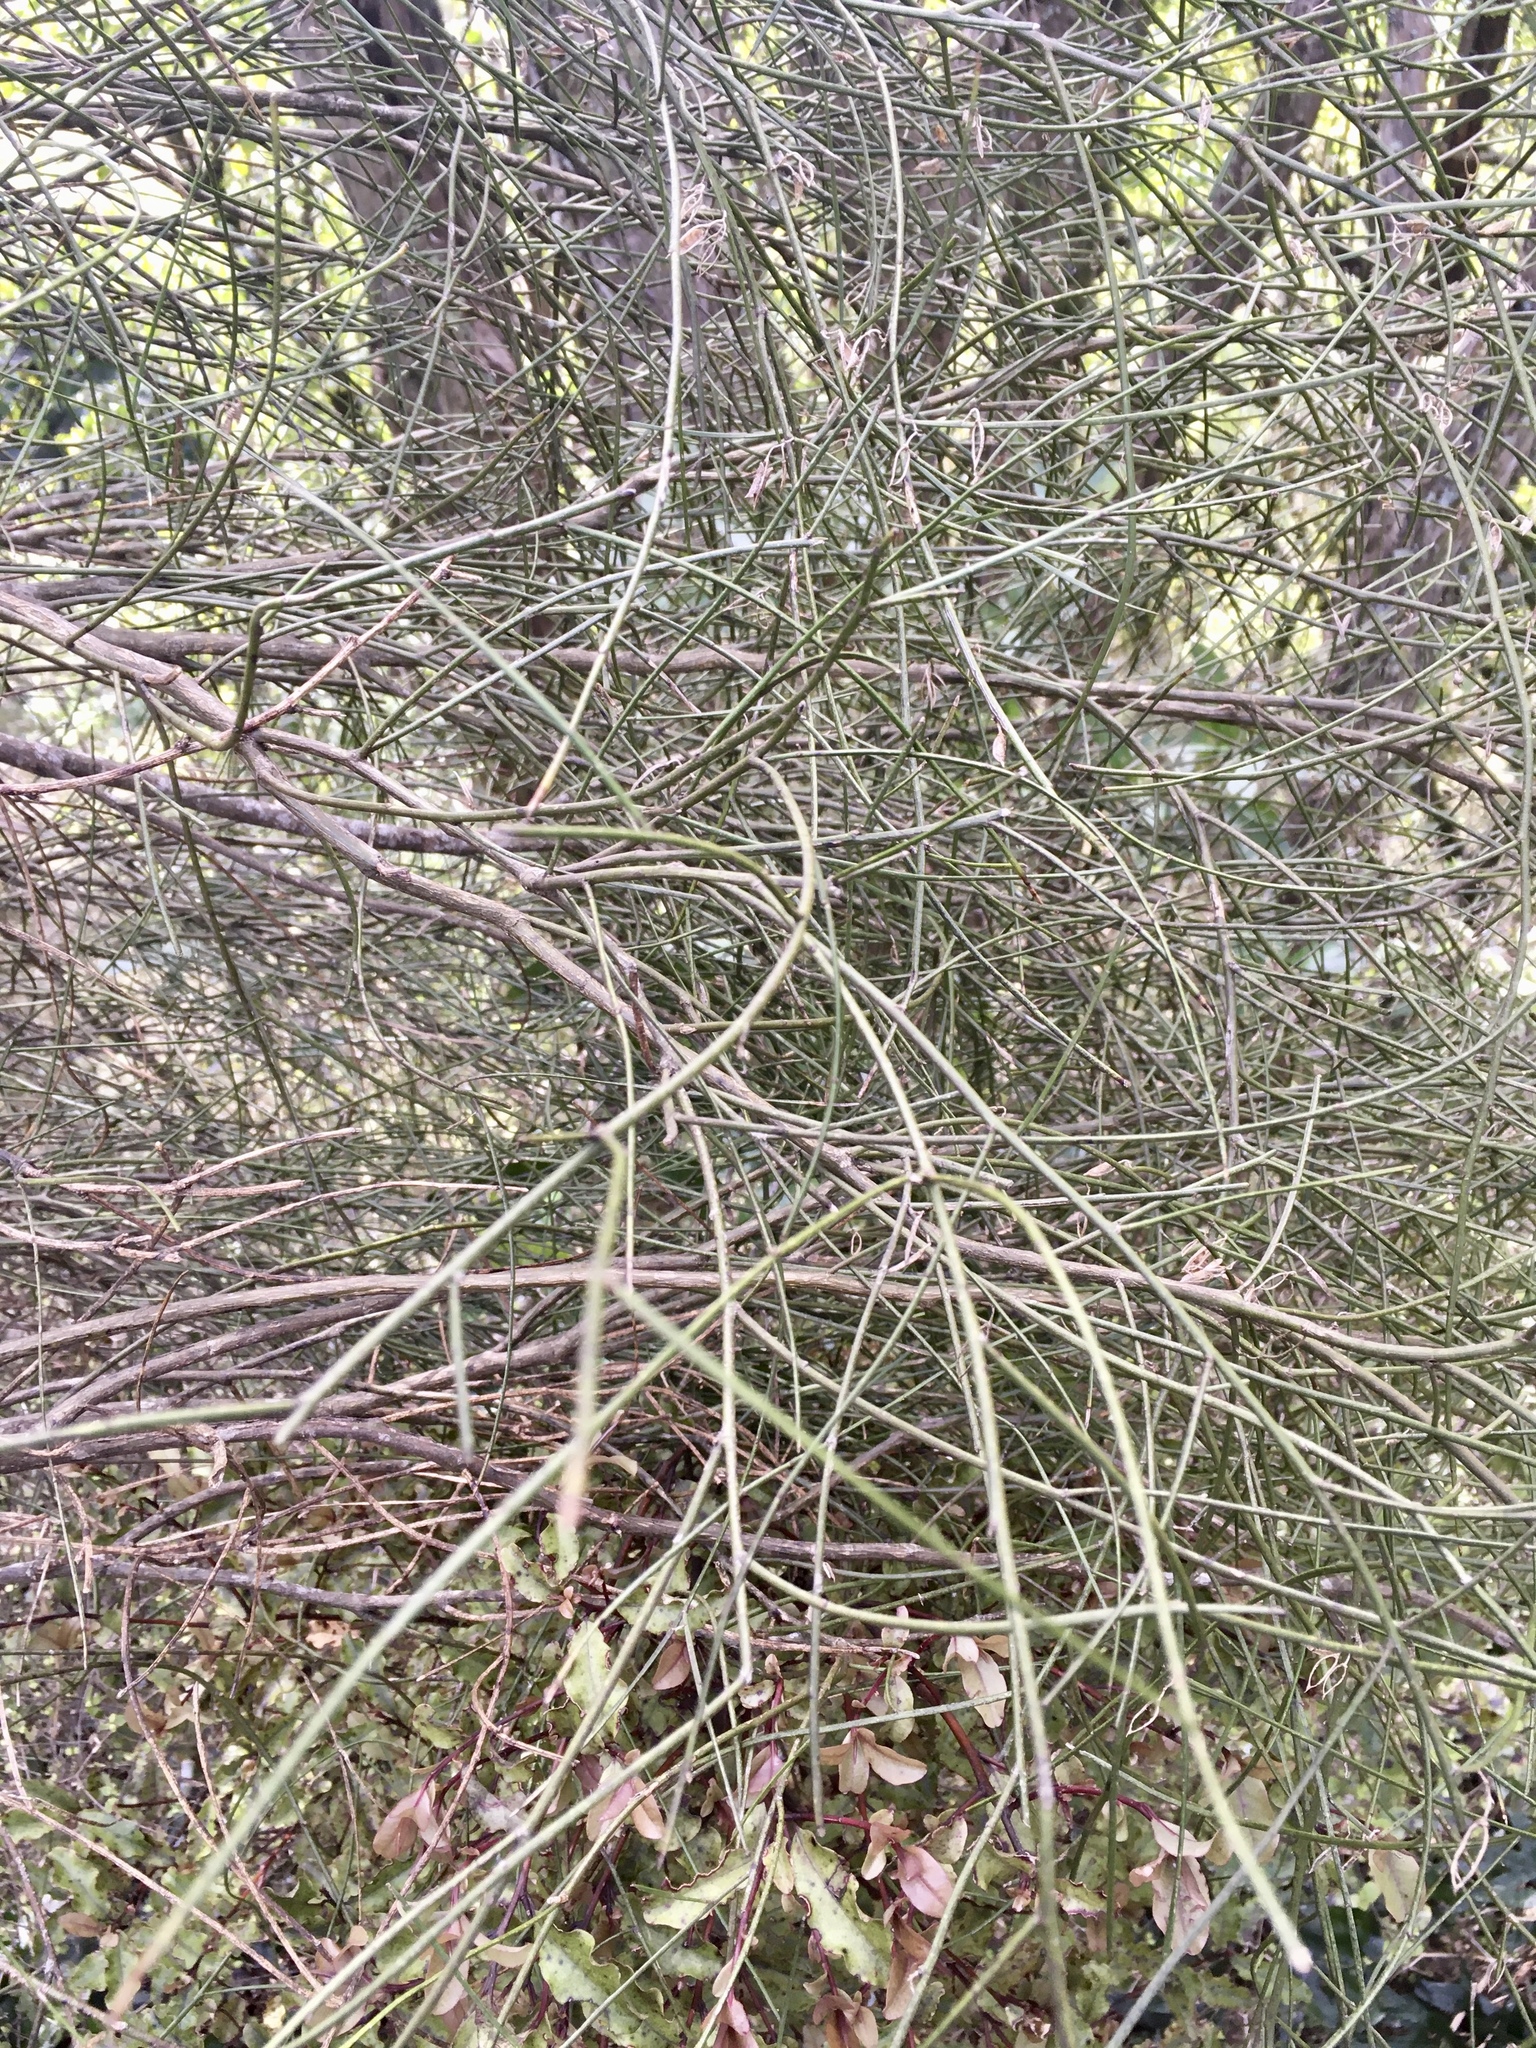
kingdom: Plantae
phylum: Tracheophyta
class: Magnoliopsida
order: Fabales
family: Fabaceae
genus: Carmichaelia
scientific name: Carmichaelia petriei
